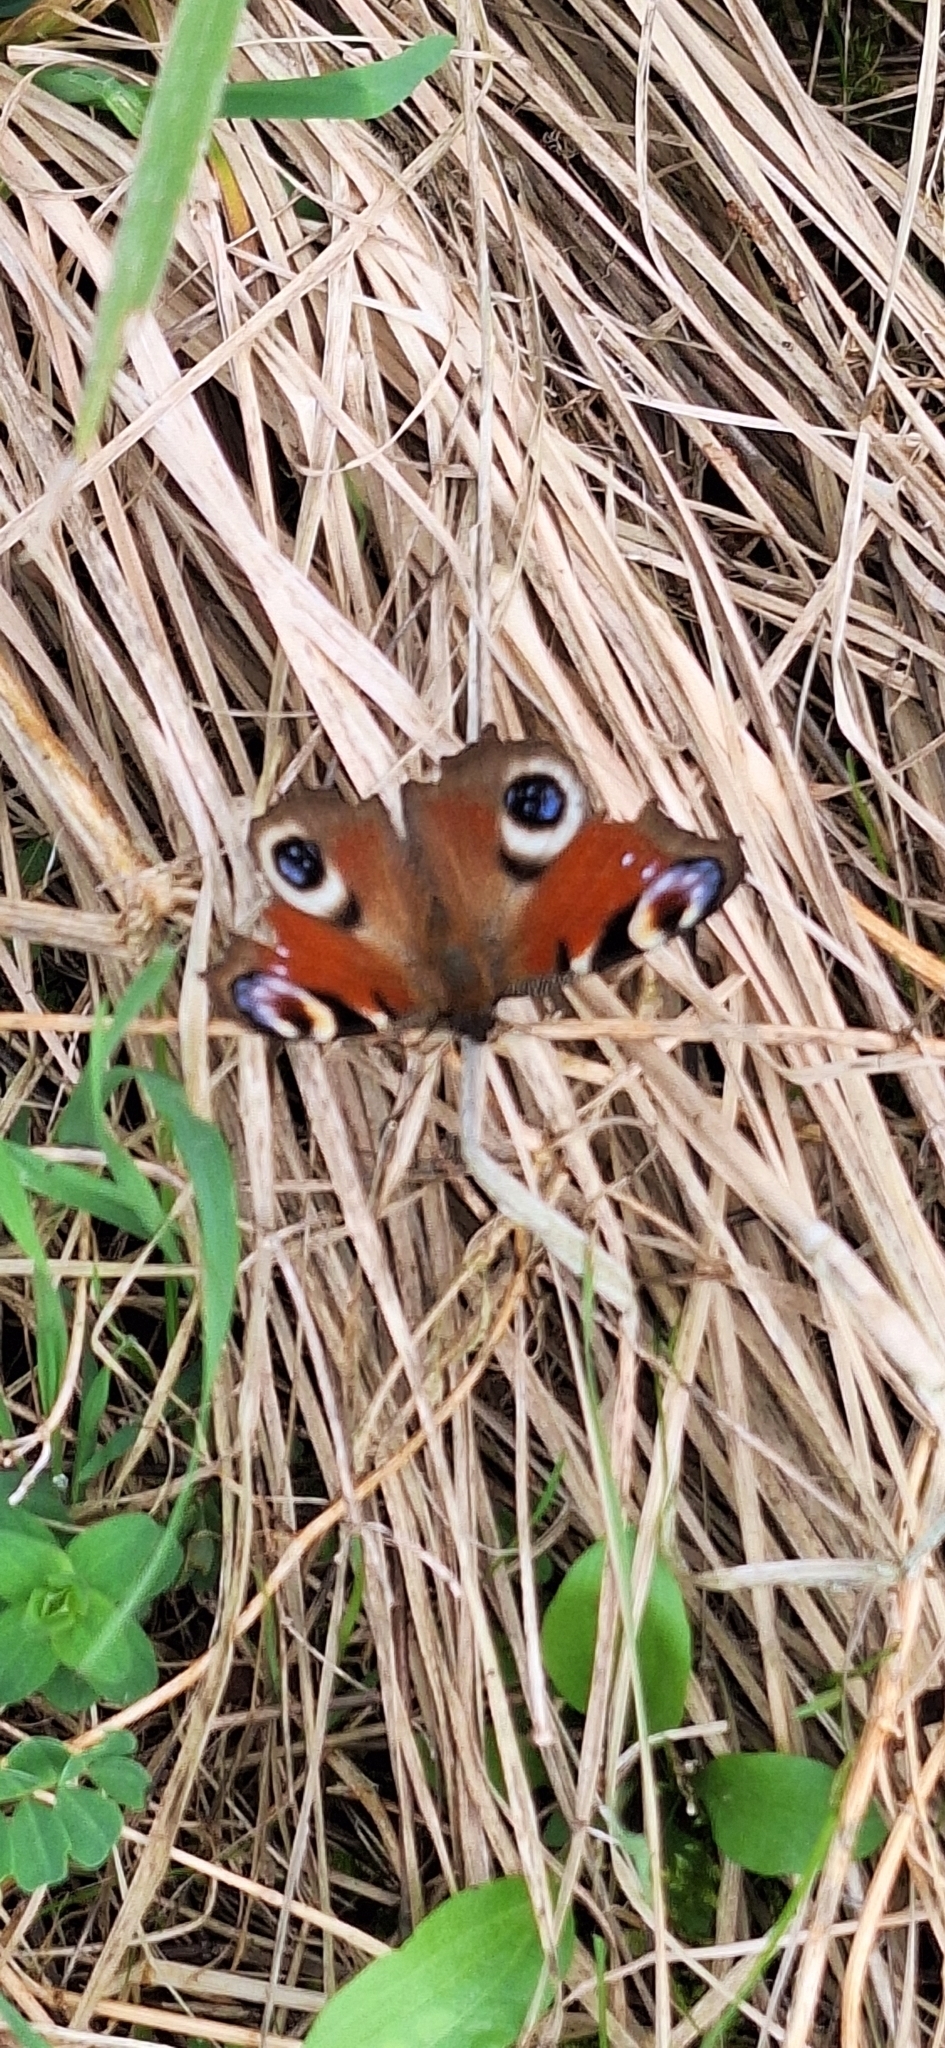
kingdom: Animalia
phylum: Arthropoda
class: Insecta
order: Lepidoptera
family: Nymphalidae
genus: Aglais
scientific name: Aglais io
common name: Peacock
